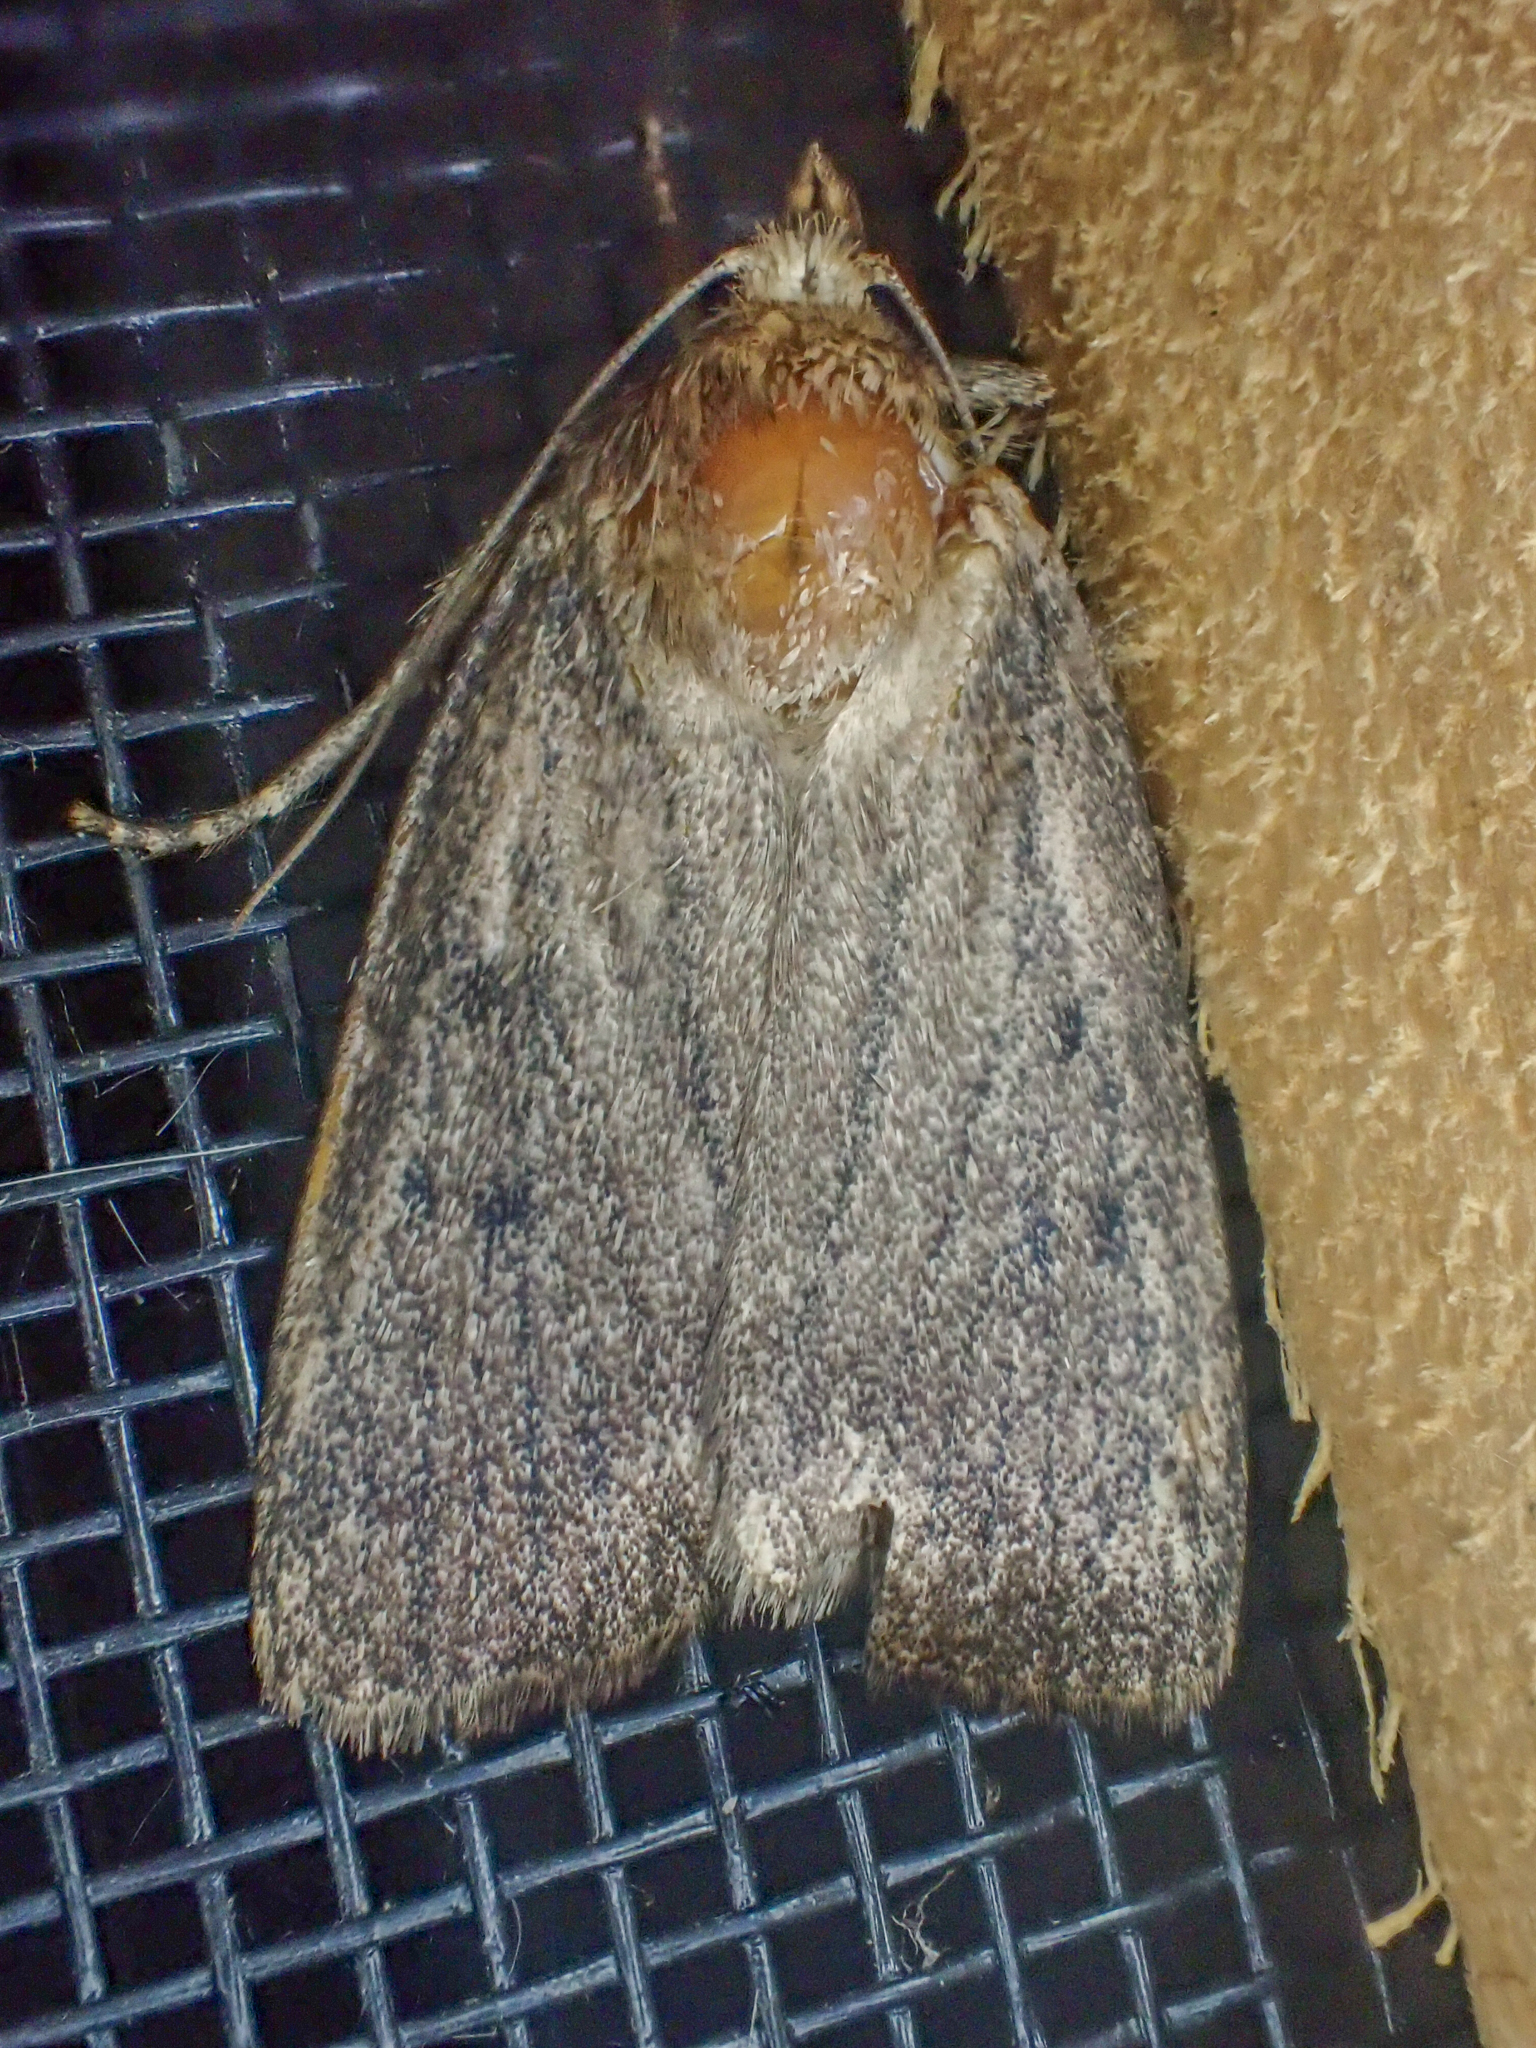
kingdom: Animalia
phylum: Arthropoda
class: Insecta
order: Lepidoptera
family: Noctuidae
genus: Amphipyra
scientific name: Amphipyra tragopoginis
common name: Mouse moth
